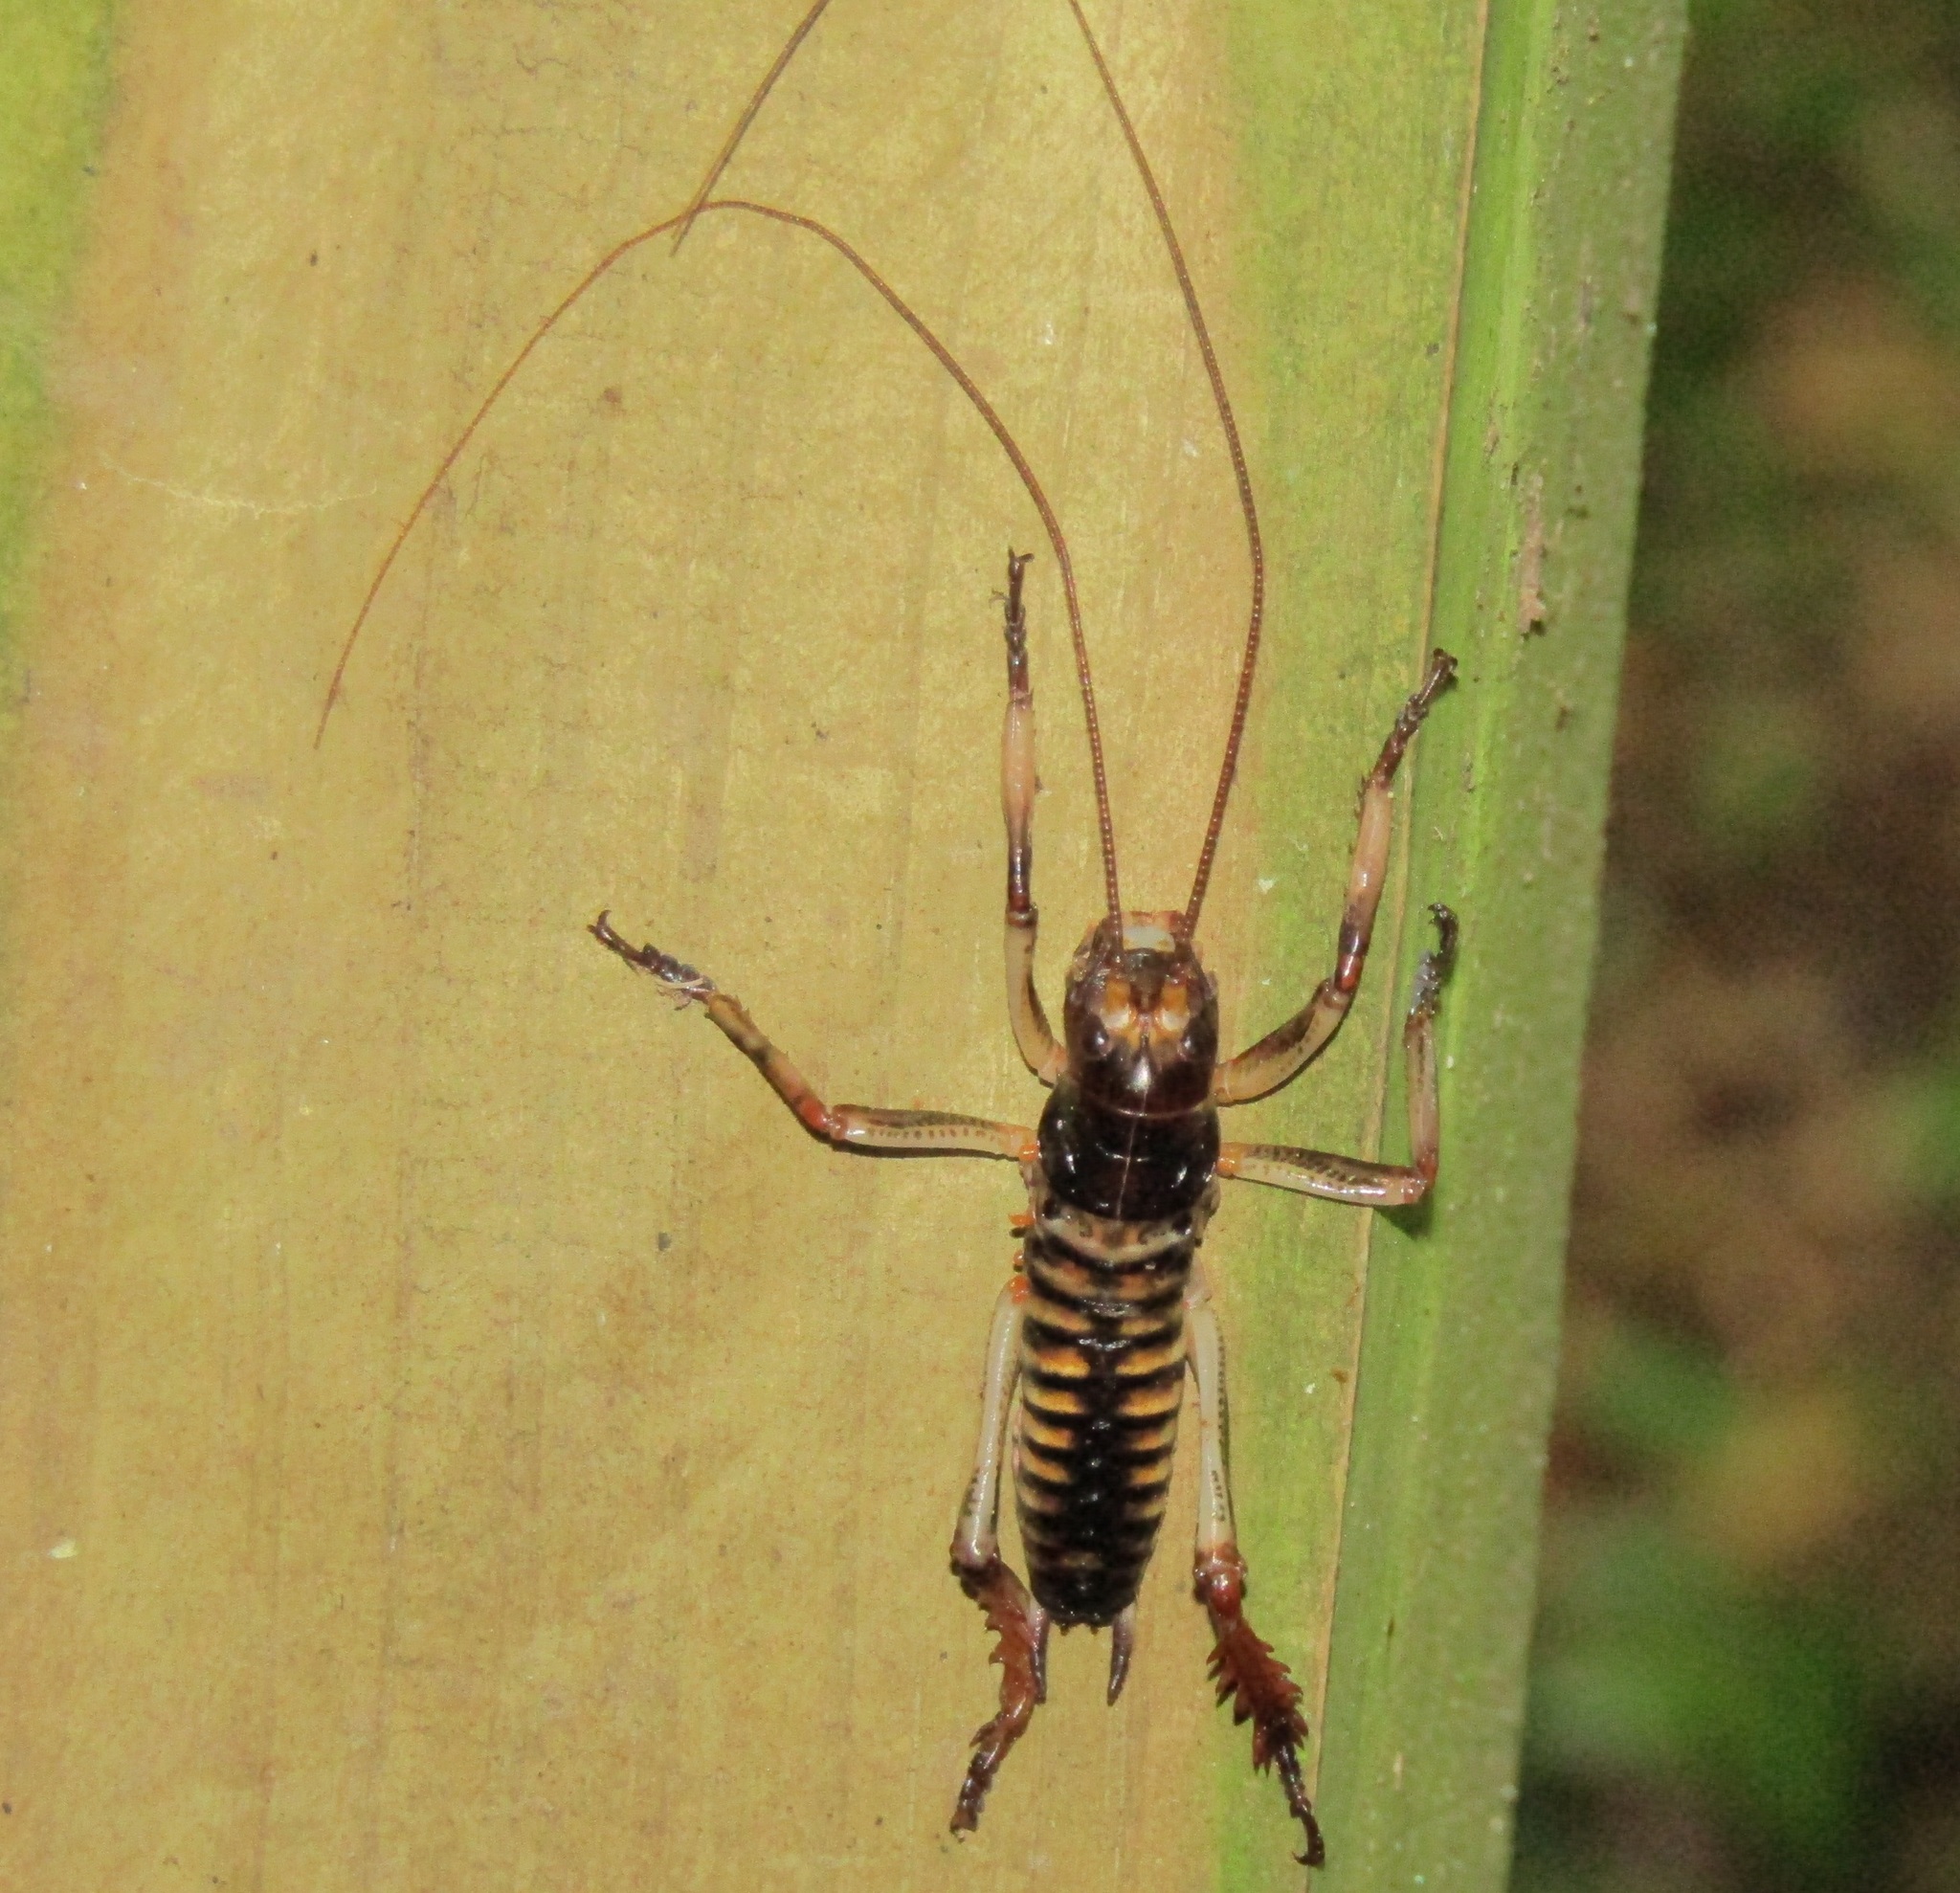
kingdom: Animalia
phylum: Arthropoda
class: Insecta
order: Orthoptera
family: Anostostomatidae
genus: Hemideina
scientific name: Hemideina crassidens
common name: Wellington tree weta
